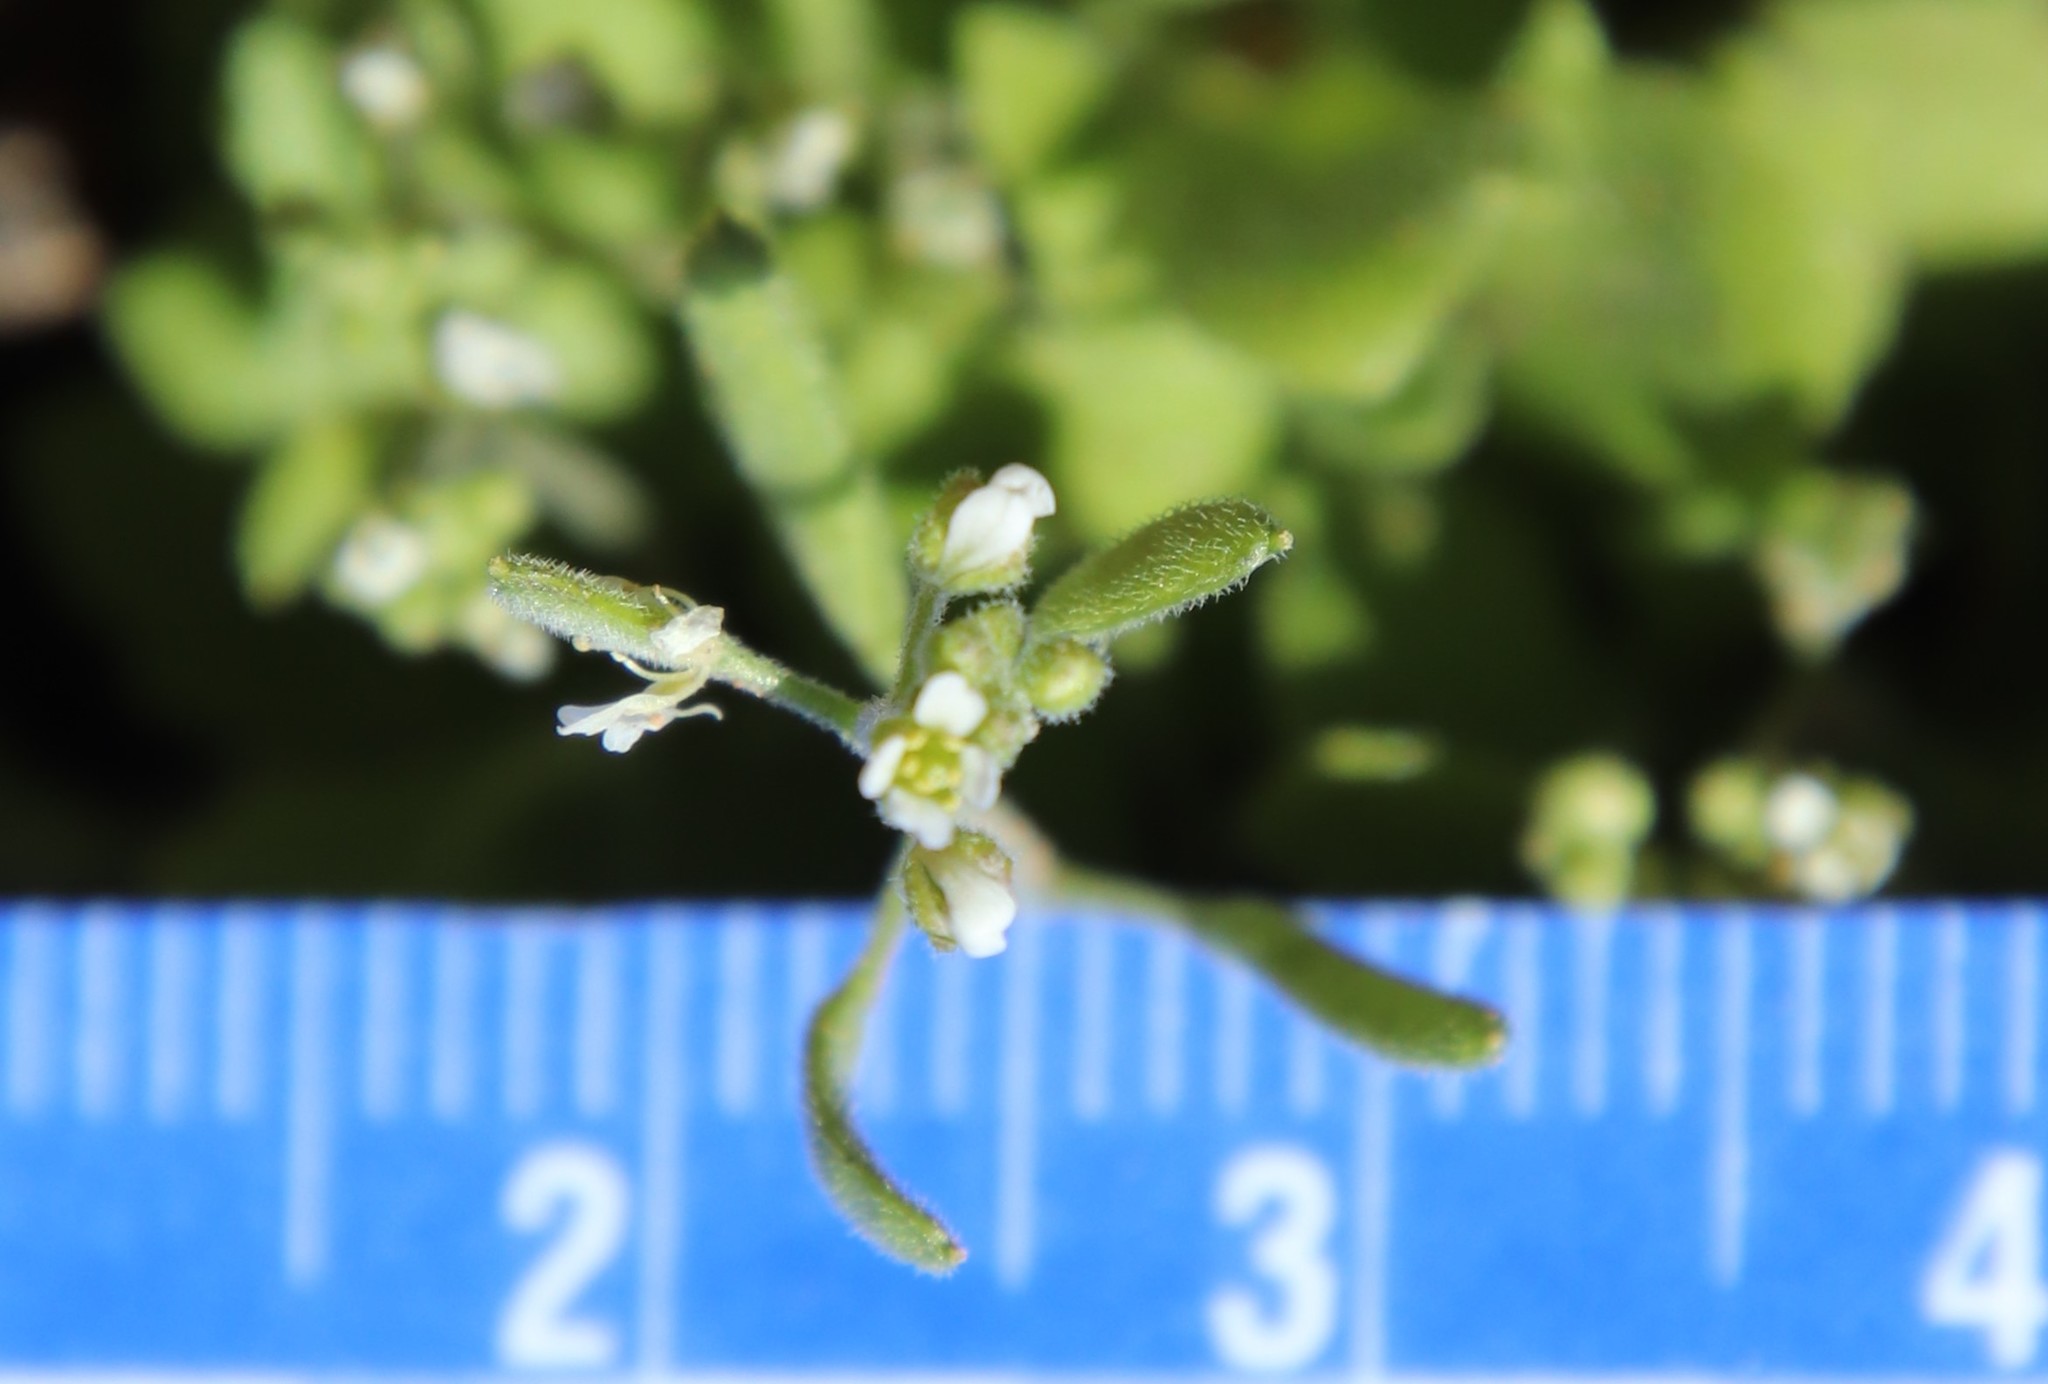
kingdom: Plantae
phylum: Tracheophyta
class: Magnoliopsida
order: Brassicales
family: Brassicaceae
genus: Tomostima
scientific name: Tomostima cuneifolia
